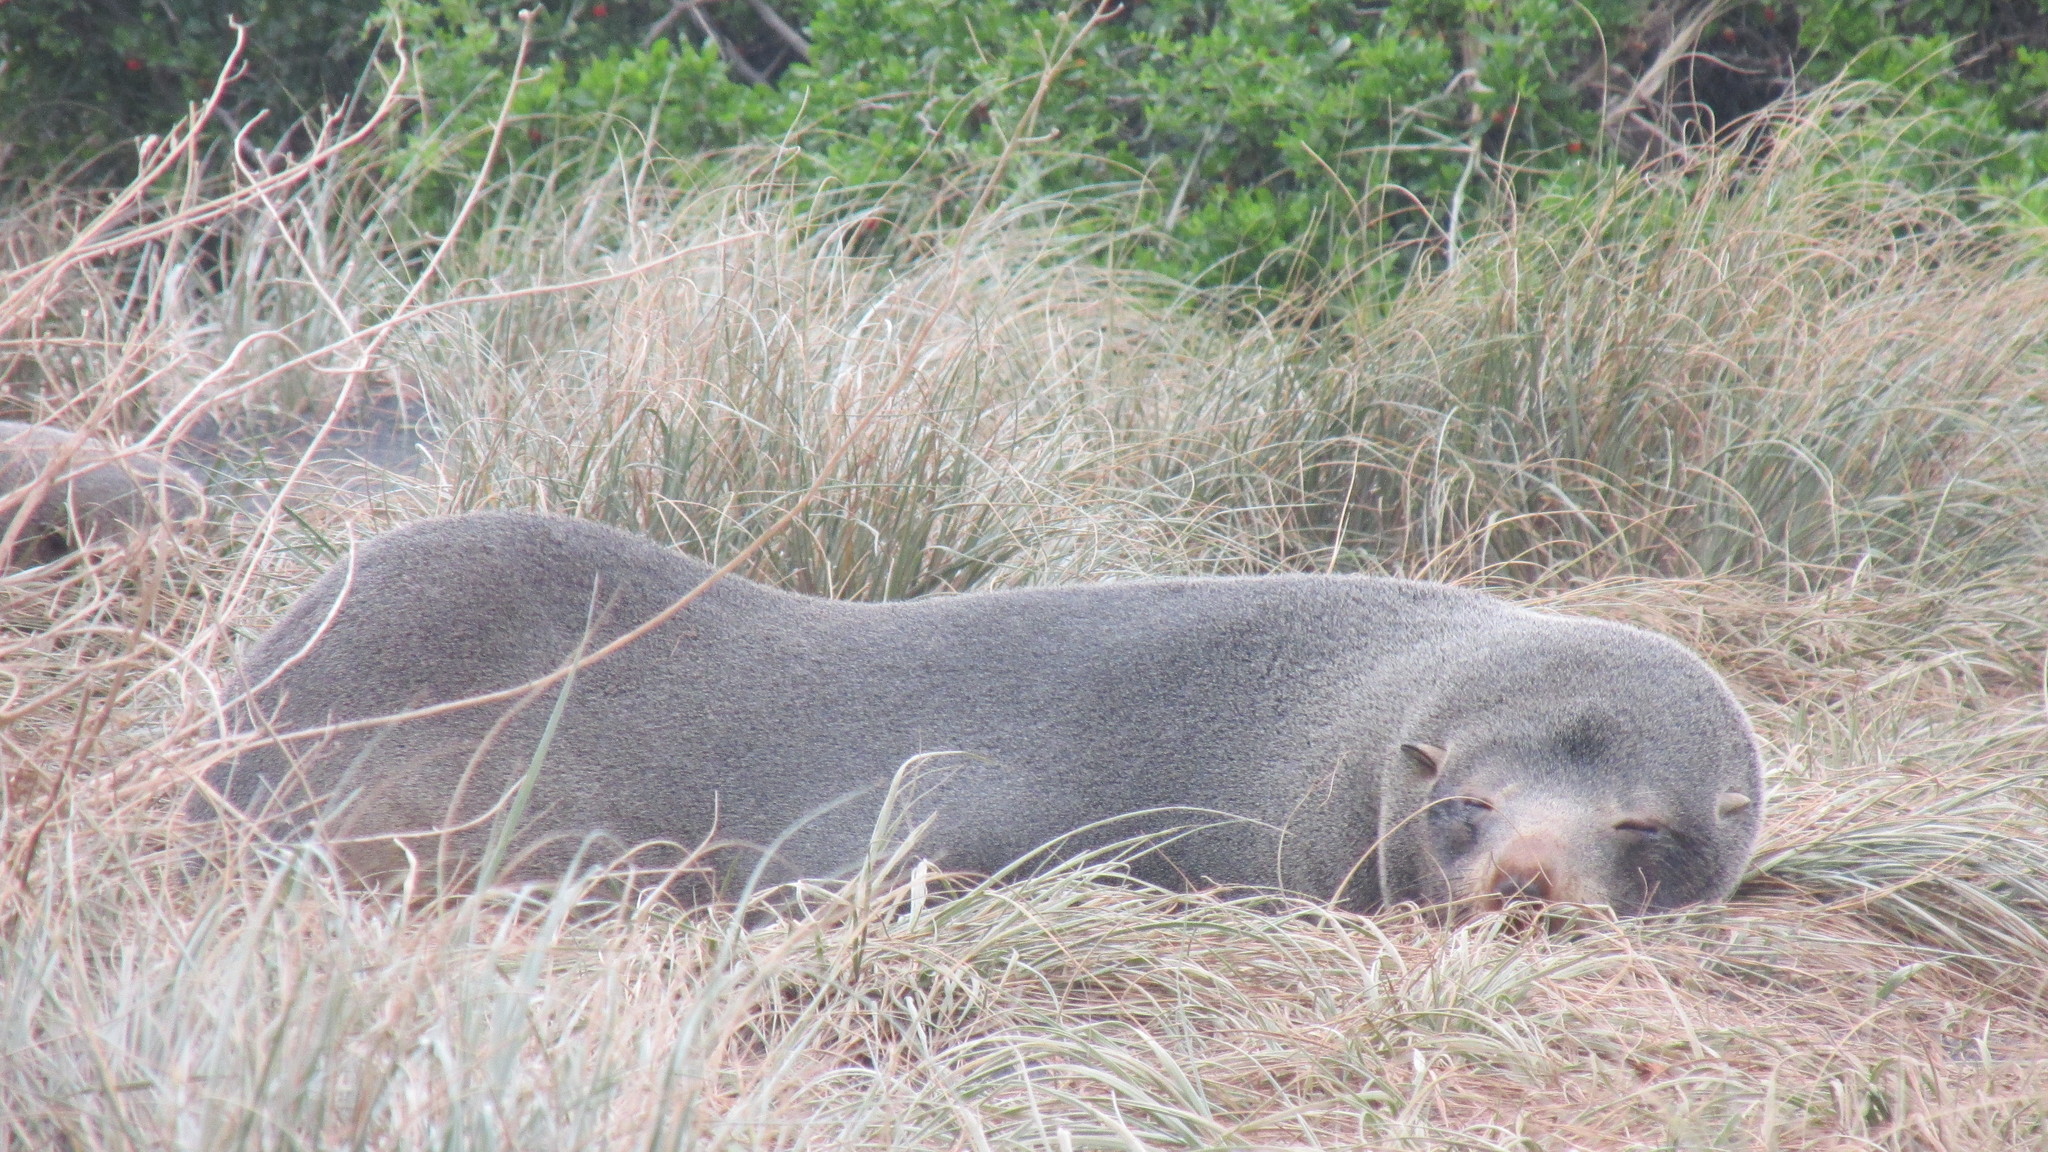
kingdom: Animalia
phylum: Chordata
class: Mammalia
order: Carnivora
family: Otariidae
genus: Arctocephalus
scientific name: Arctocephalus forsteri
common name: New zealand fur seal
